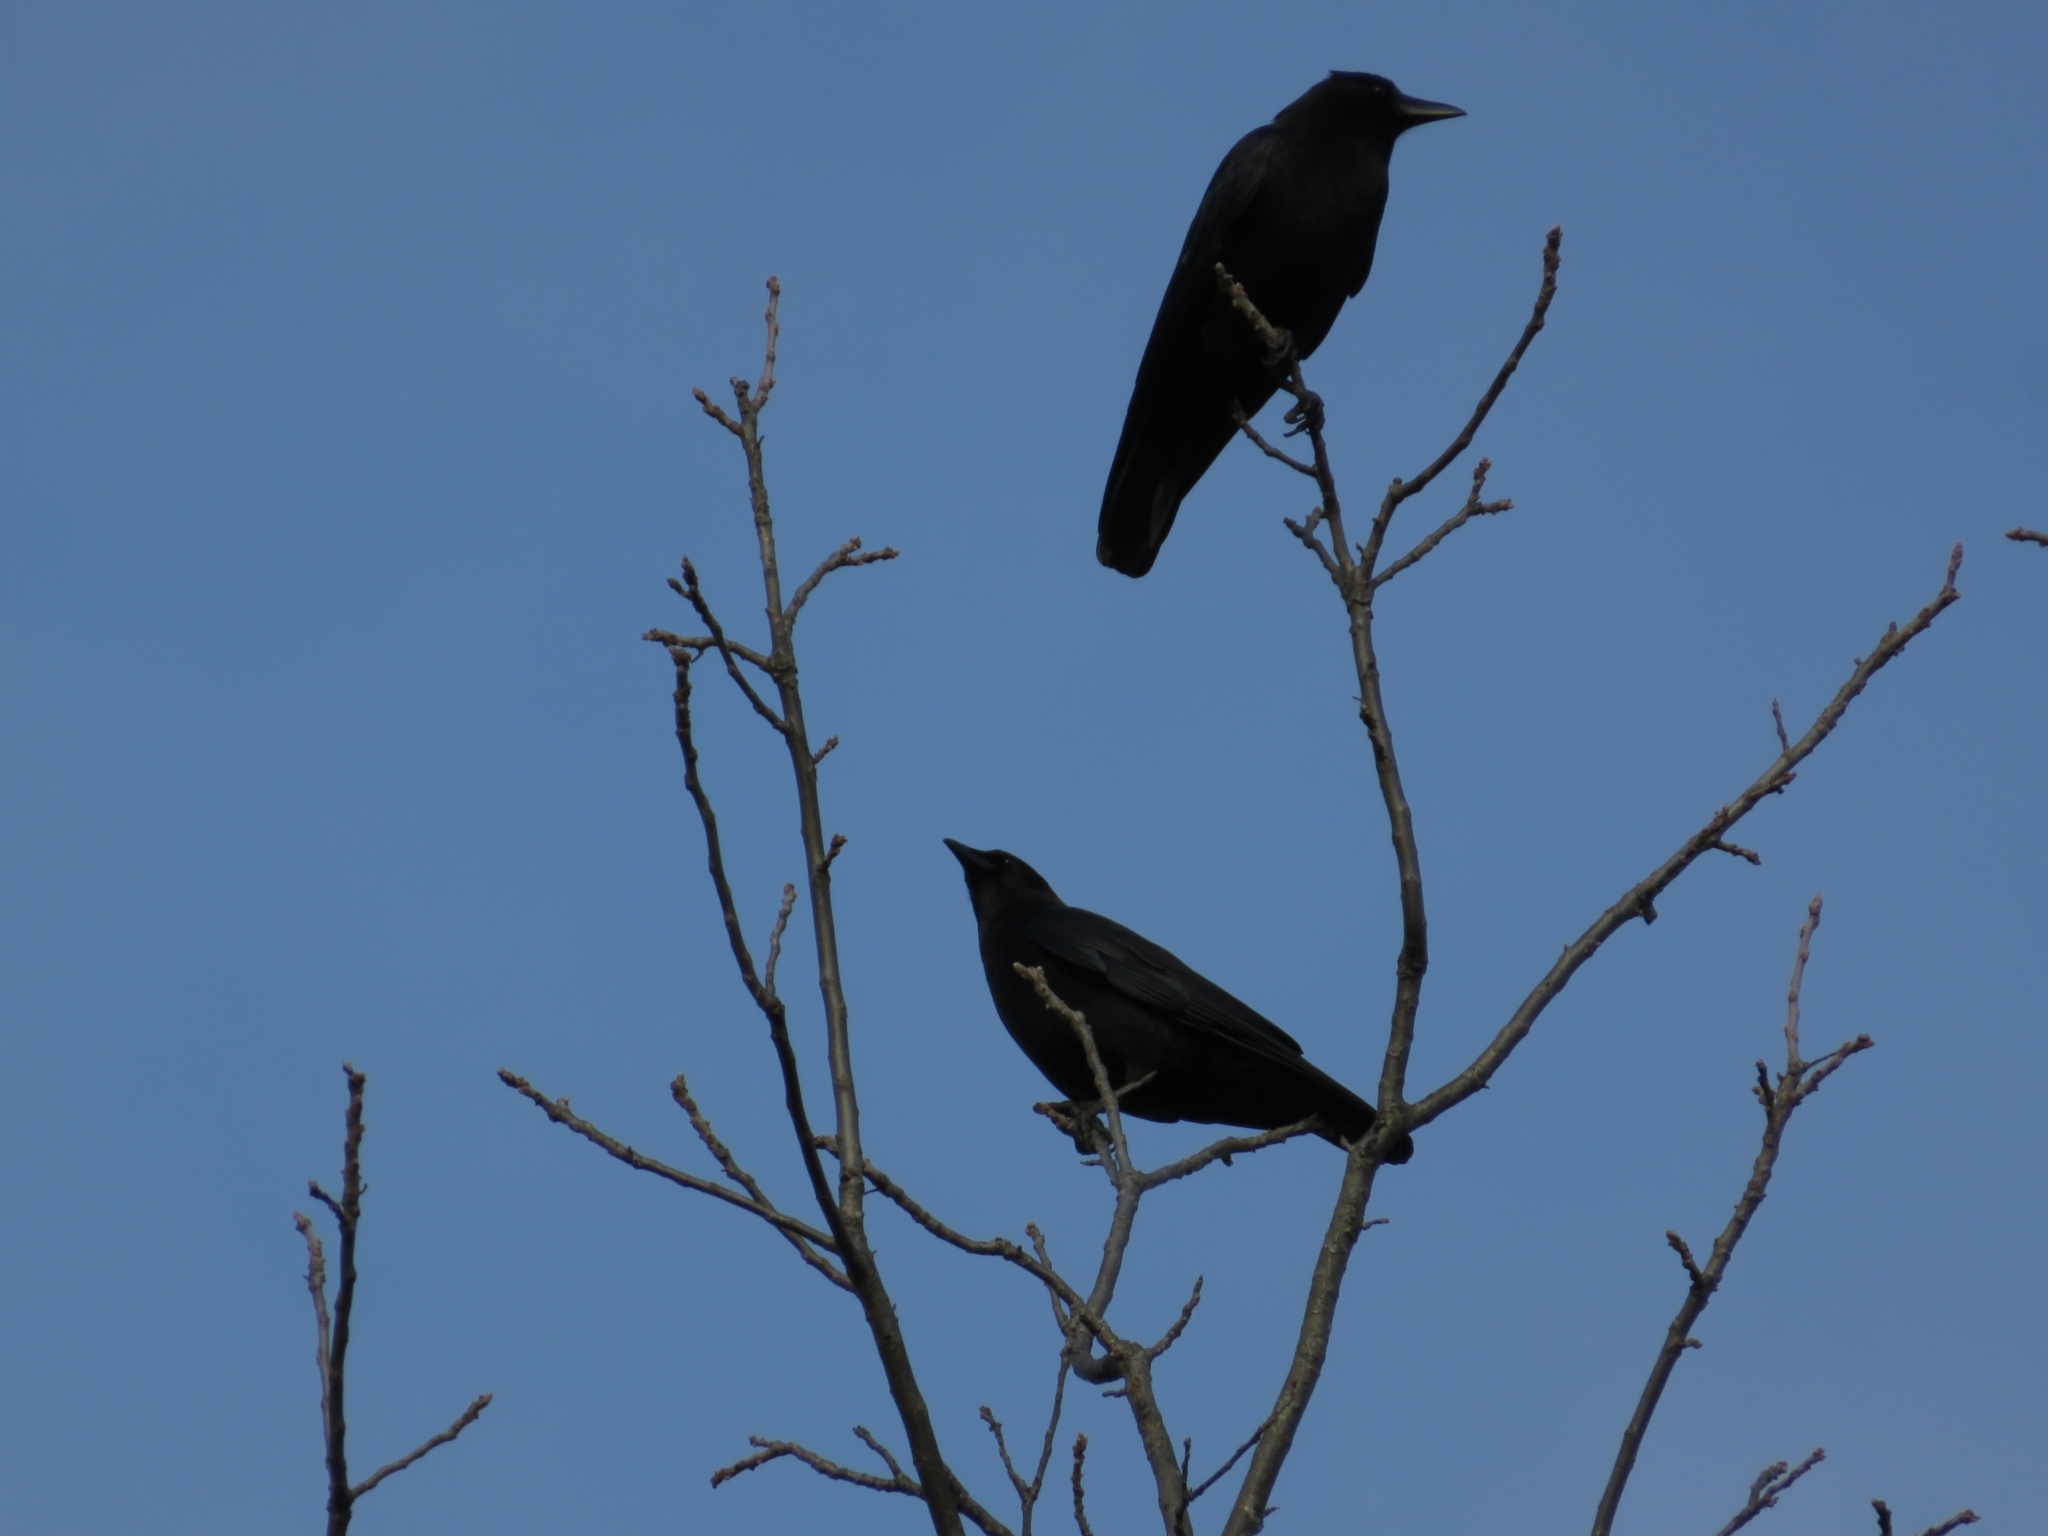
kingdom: Animalia
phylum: Chordata
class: Aves
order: Passeriformes
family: Corvidae
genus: Corvus
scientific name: Corvus brachyrhynchos
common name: American crow
